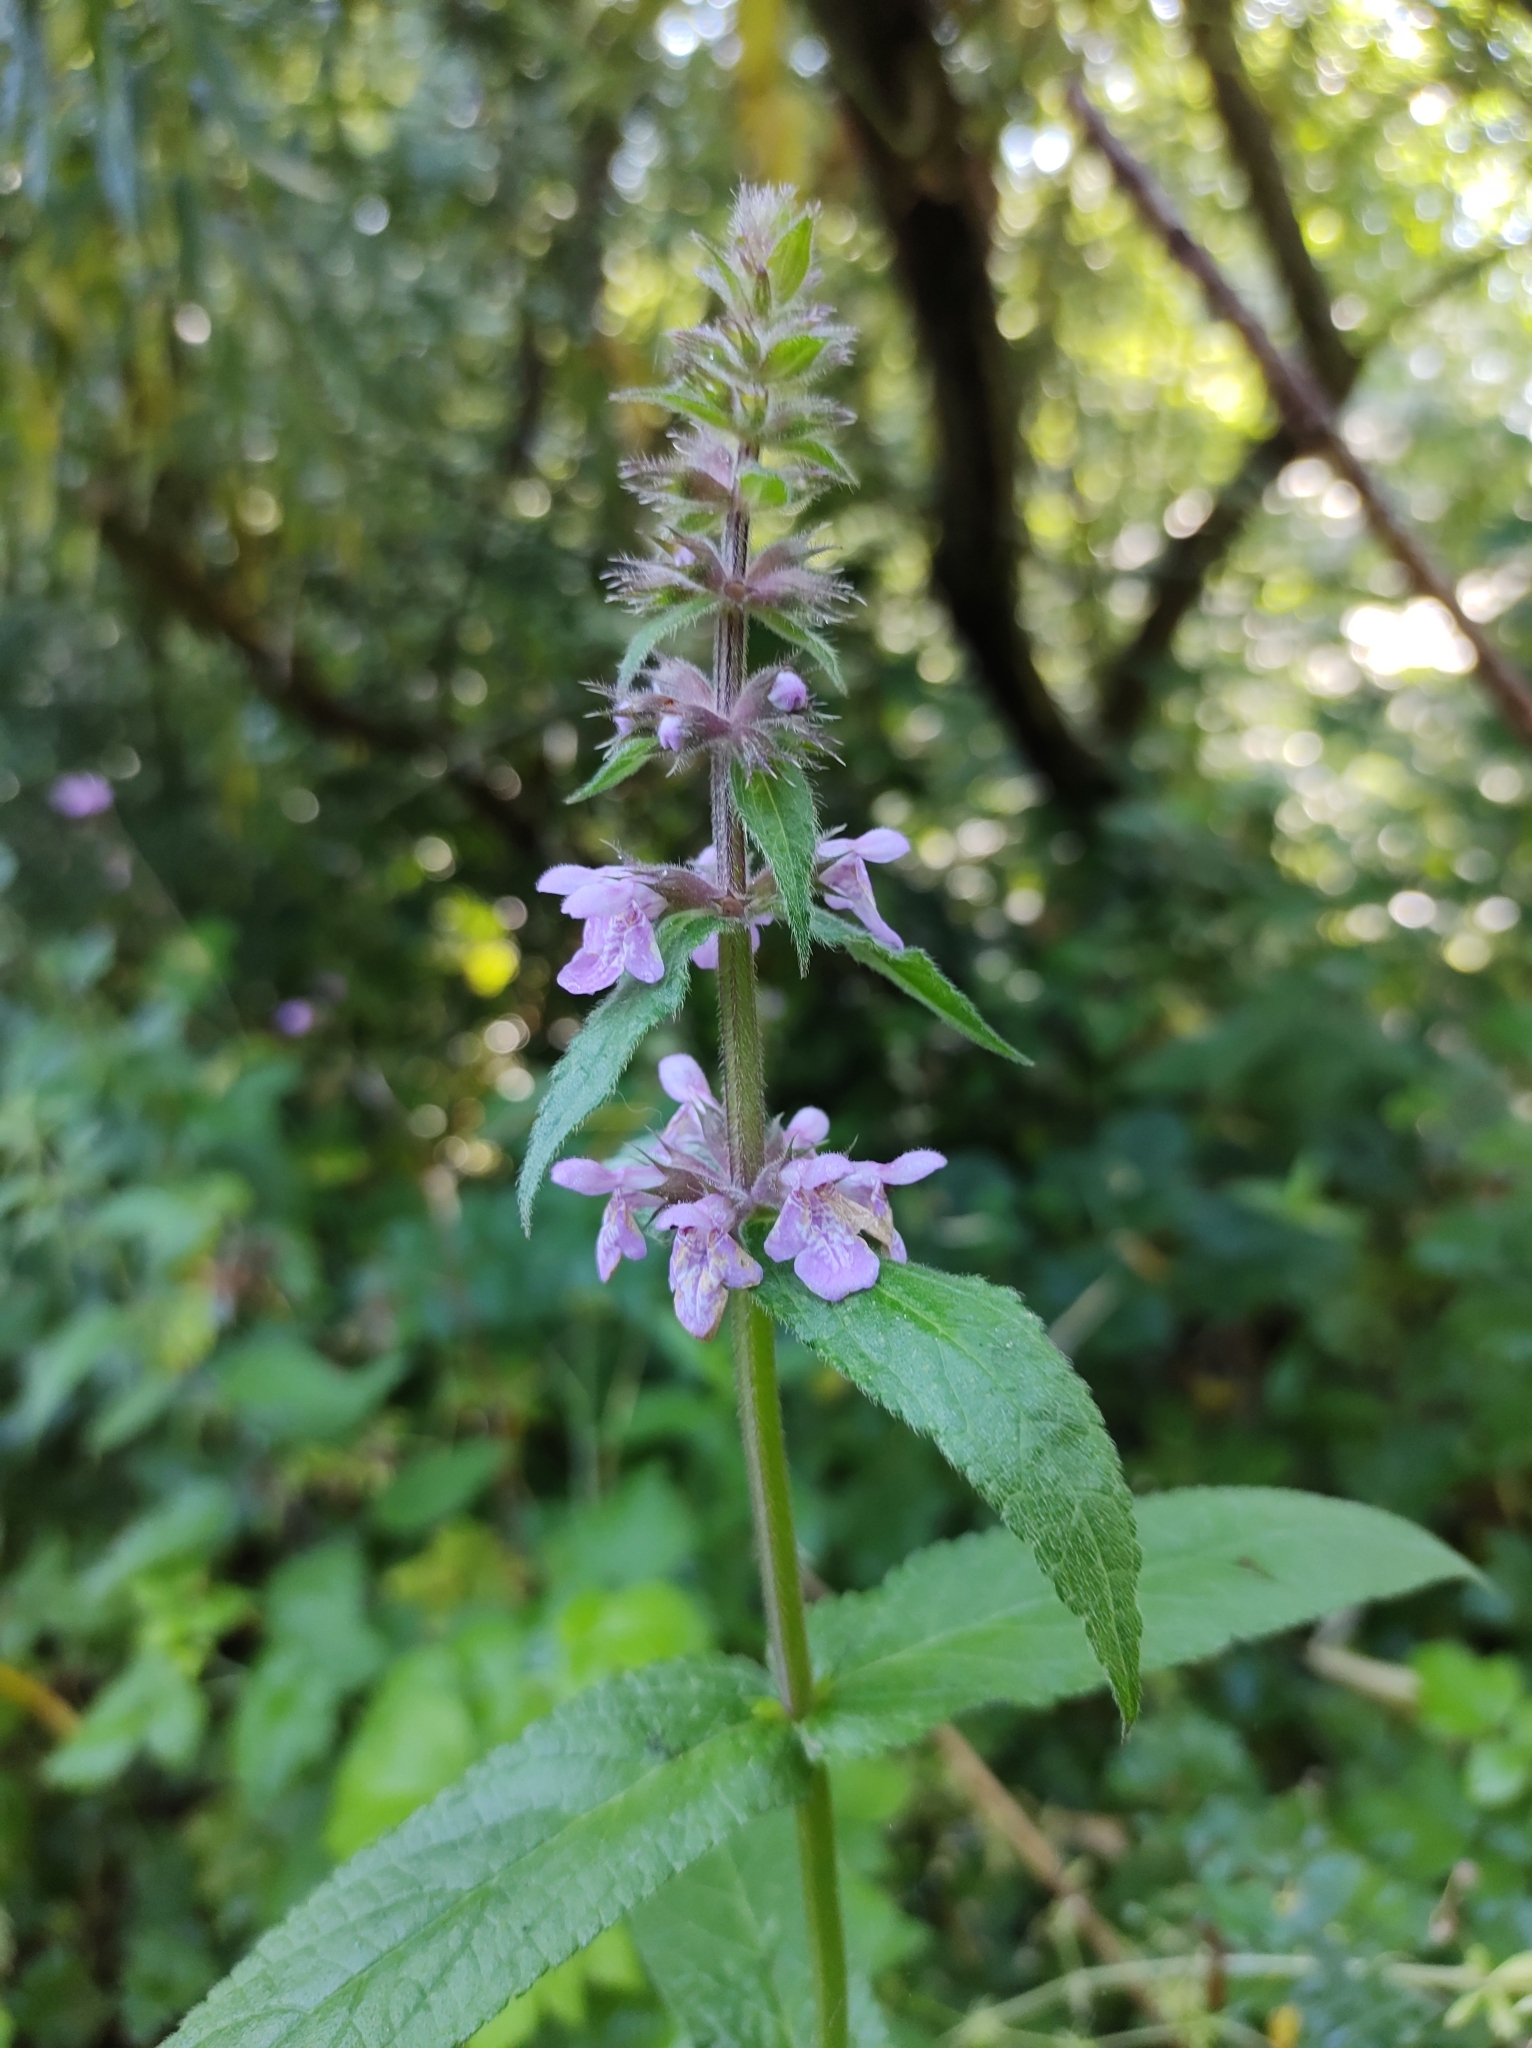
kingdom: Plantae
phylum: Tracheophyta
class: Magnoliopsida
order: Lamiales
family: Lamiaceae
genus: Stachys
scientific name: Stachys palustris
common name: Marsh woundwort
